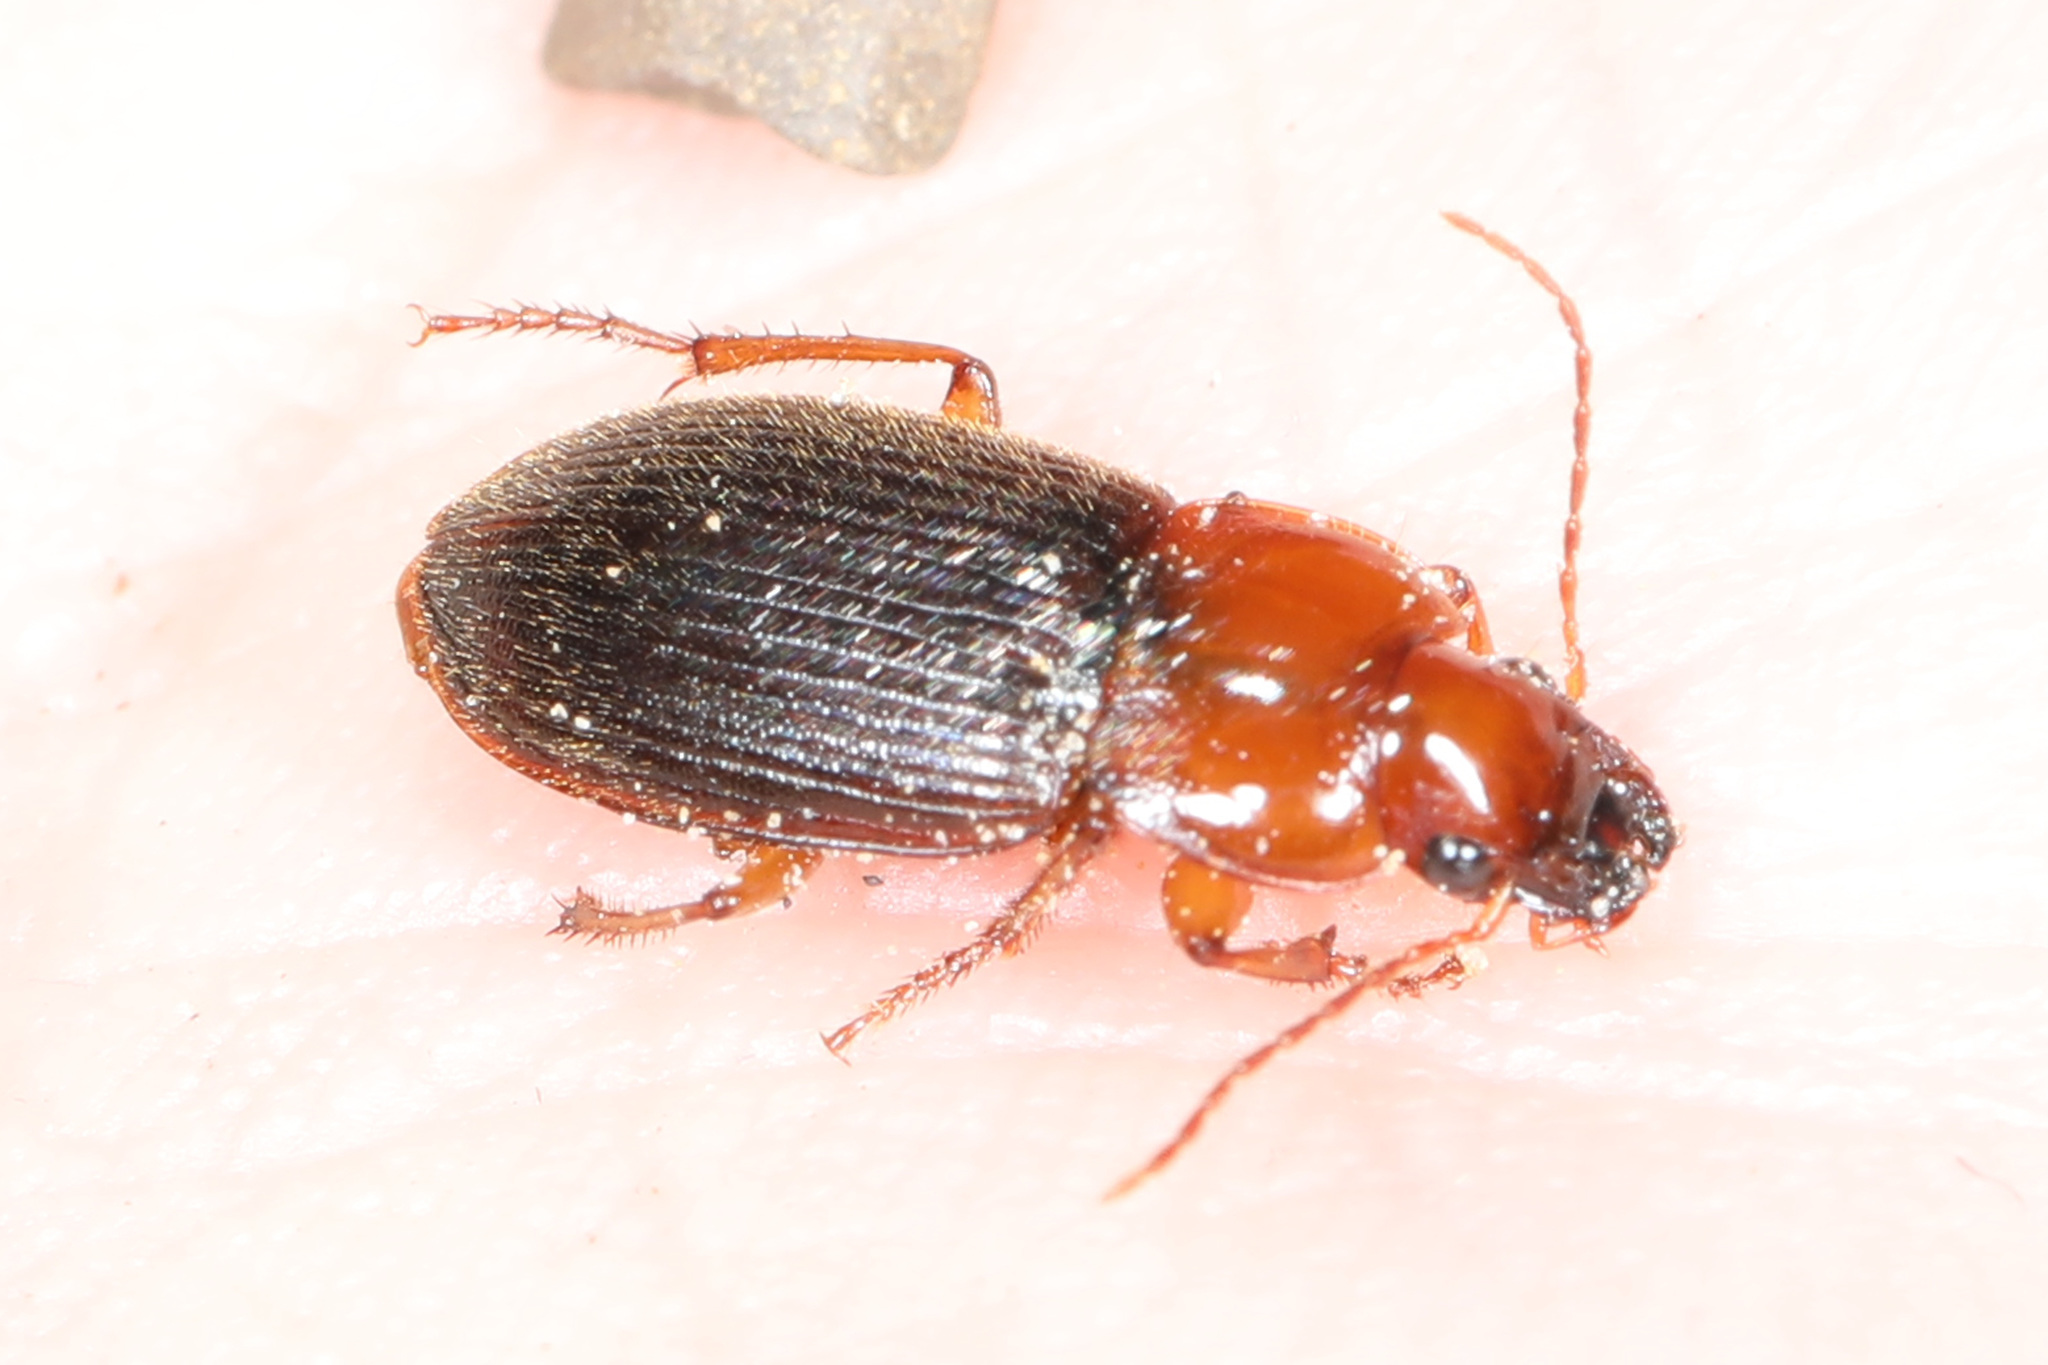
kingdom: Animalia
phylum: Arthropoda
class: Insecta
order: Coleoptera
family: Carabidae
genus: Amphasia
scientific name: Amphasia interstitialis
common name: Red-headed ground beetle
